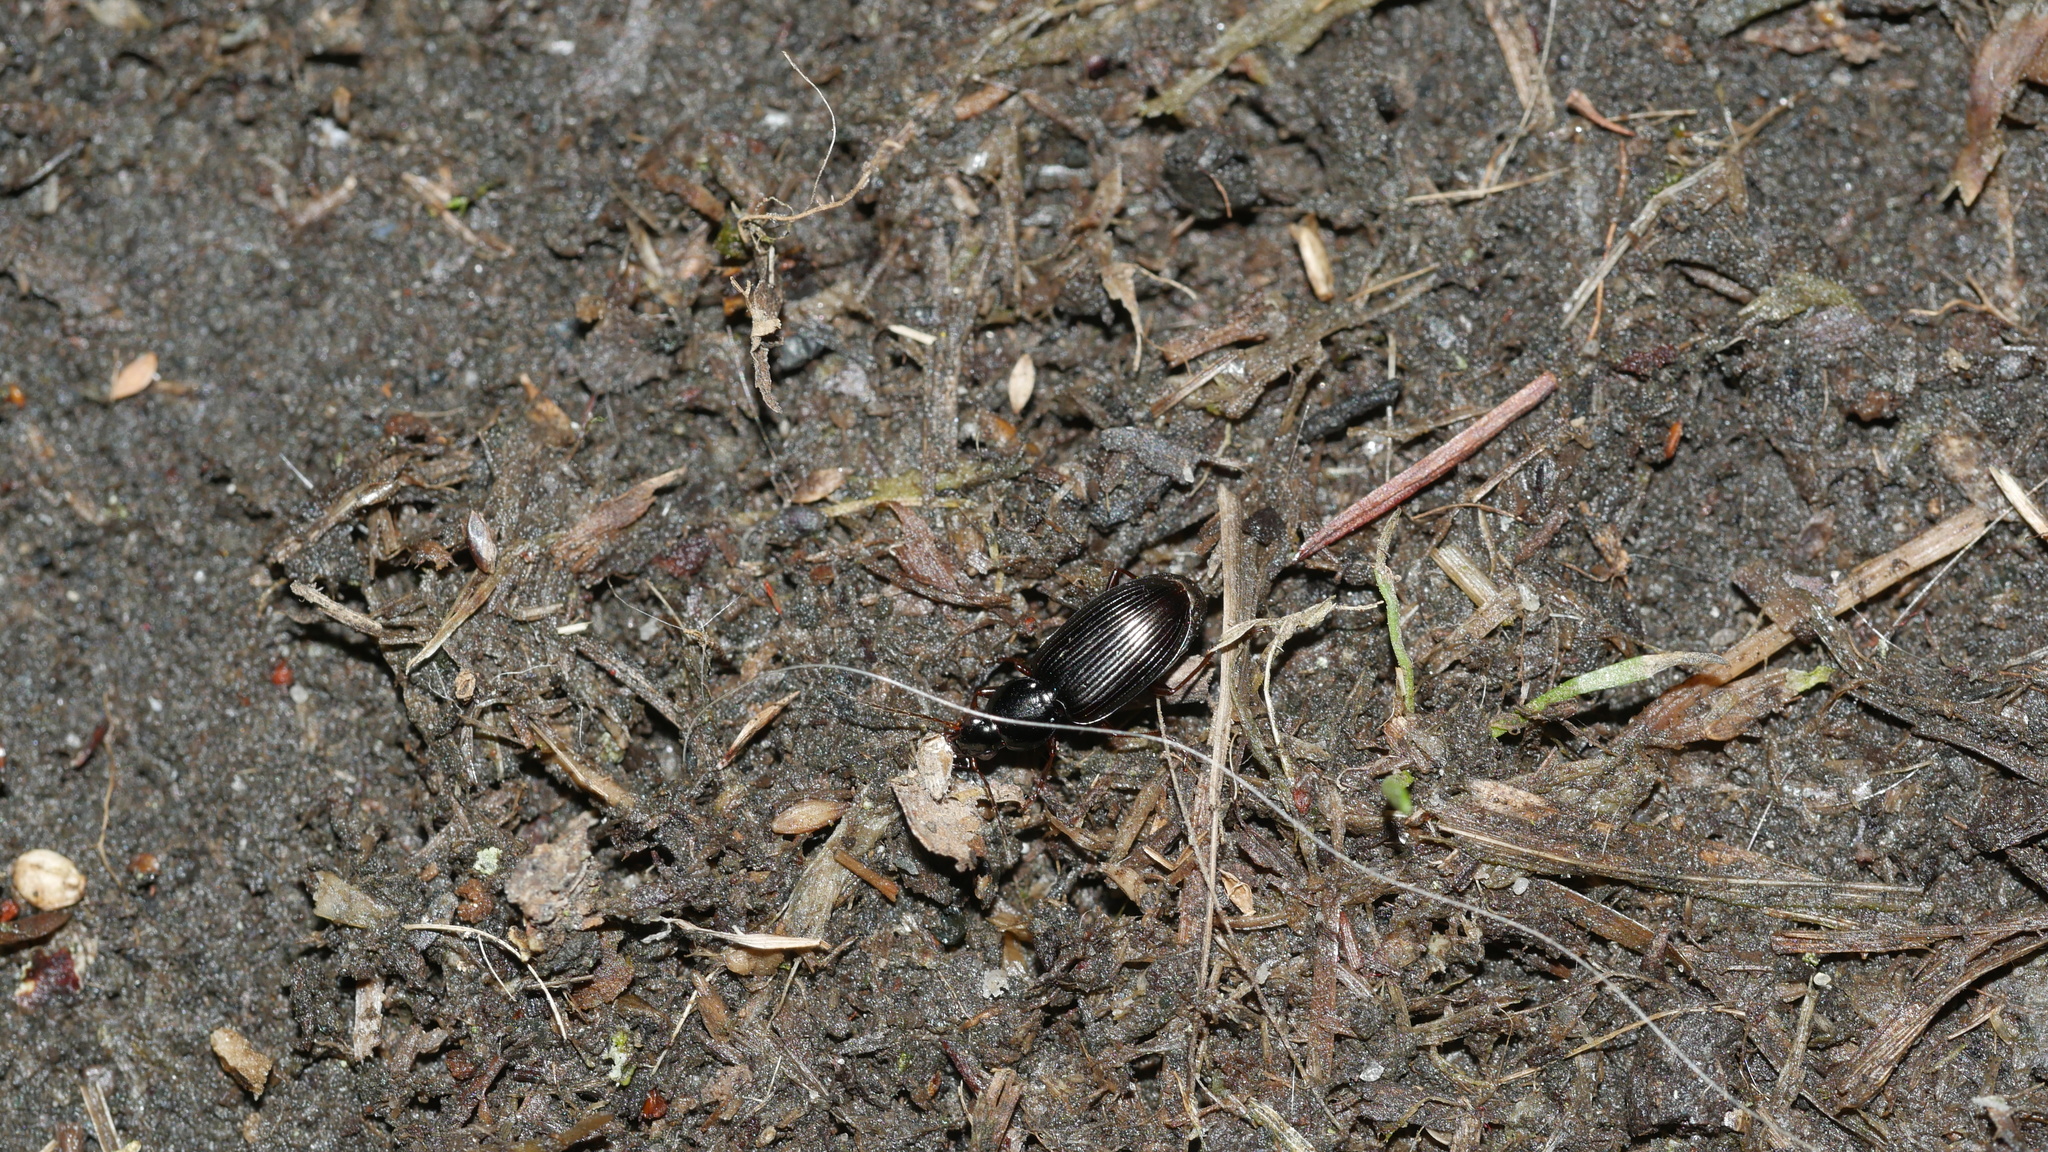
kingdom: Animalia
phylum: Arthropoda
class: Insecta
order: Coleoptera
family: Carabidae
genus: Agonum
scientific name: Agonum punctiforme
